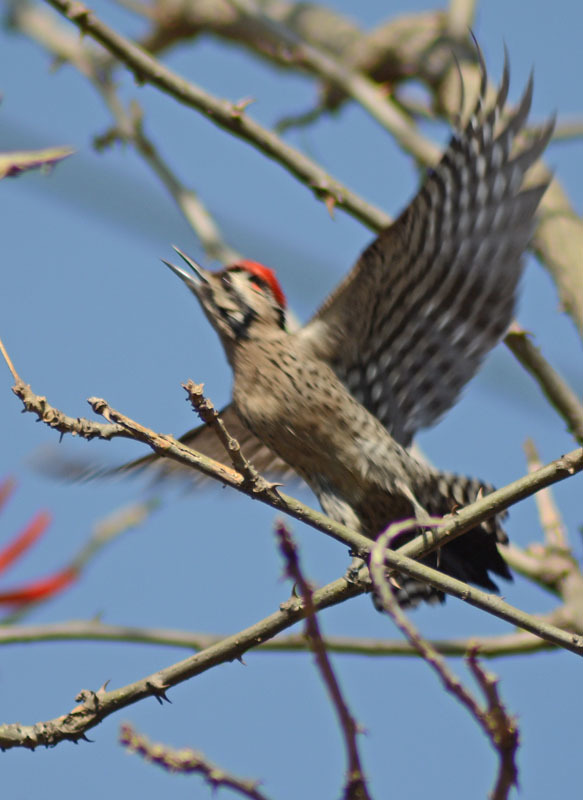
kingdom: Animalia
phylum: Chordata
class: Aves
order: Piciformes
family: Picidae
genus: Dryobates
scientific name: Dryobates scalaris
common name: Ladder-backed woodpecker
